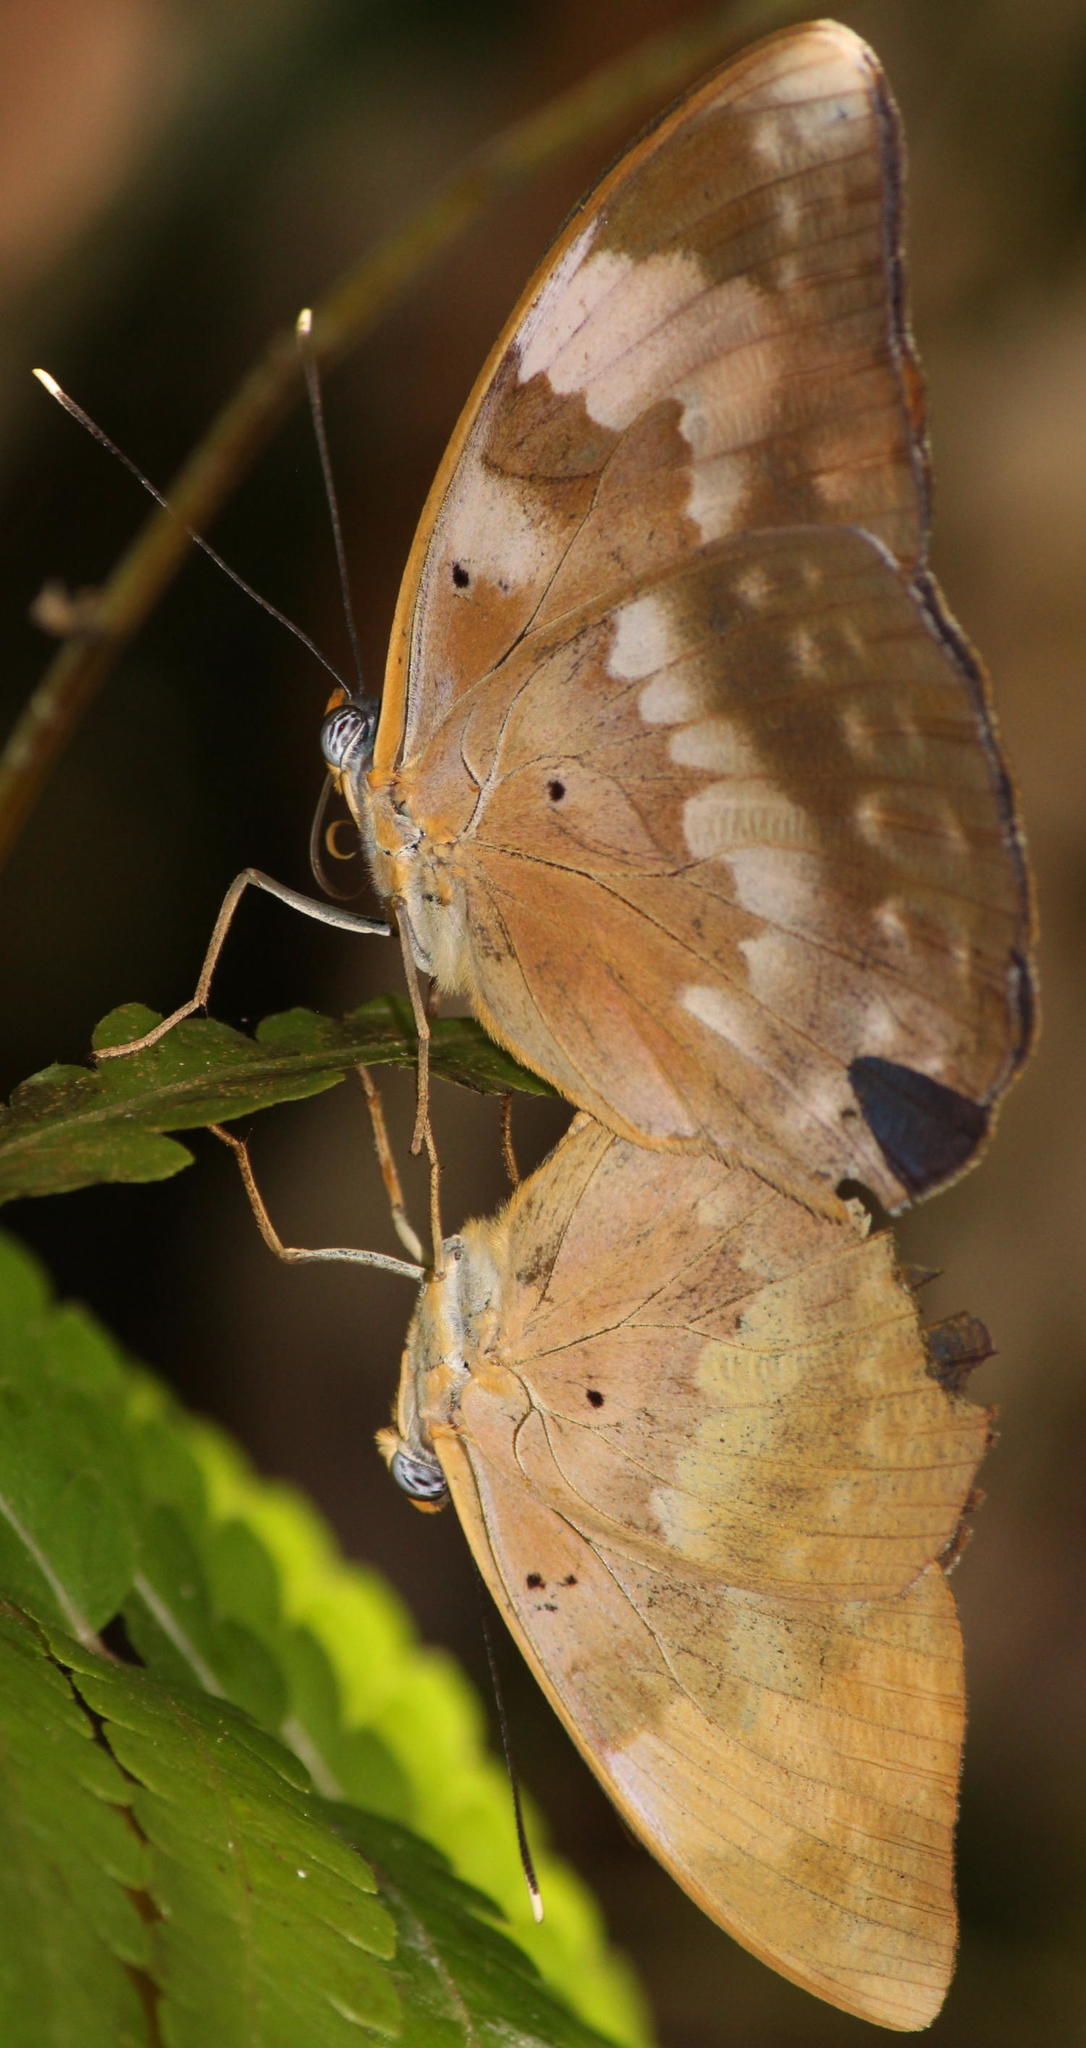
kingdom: Animalia
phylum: Arthropoda
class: Insecta
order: Lepidoptera
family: Nymphalidae
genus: Euphaedra
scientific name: Euphaedra neophron
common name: Gold-banded forester
